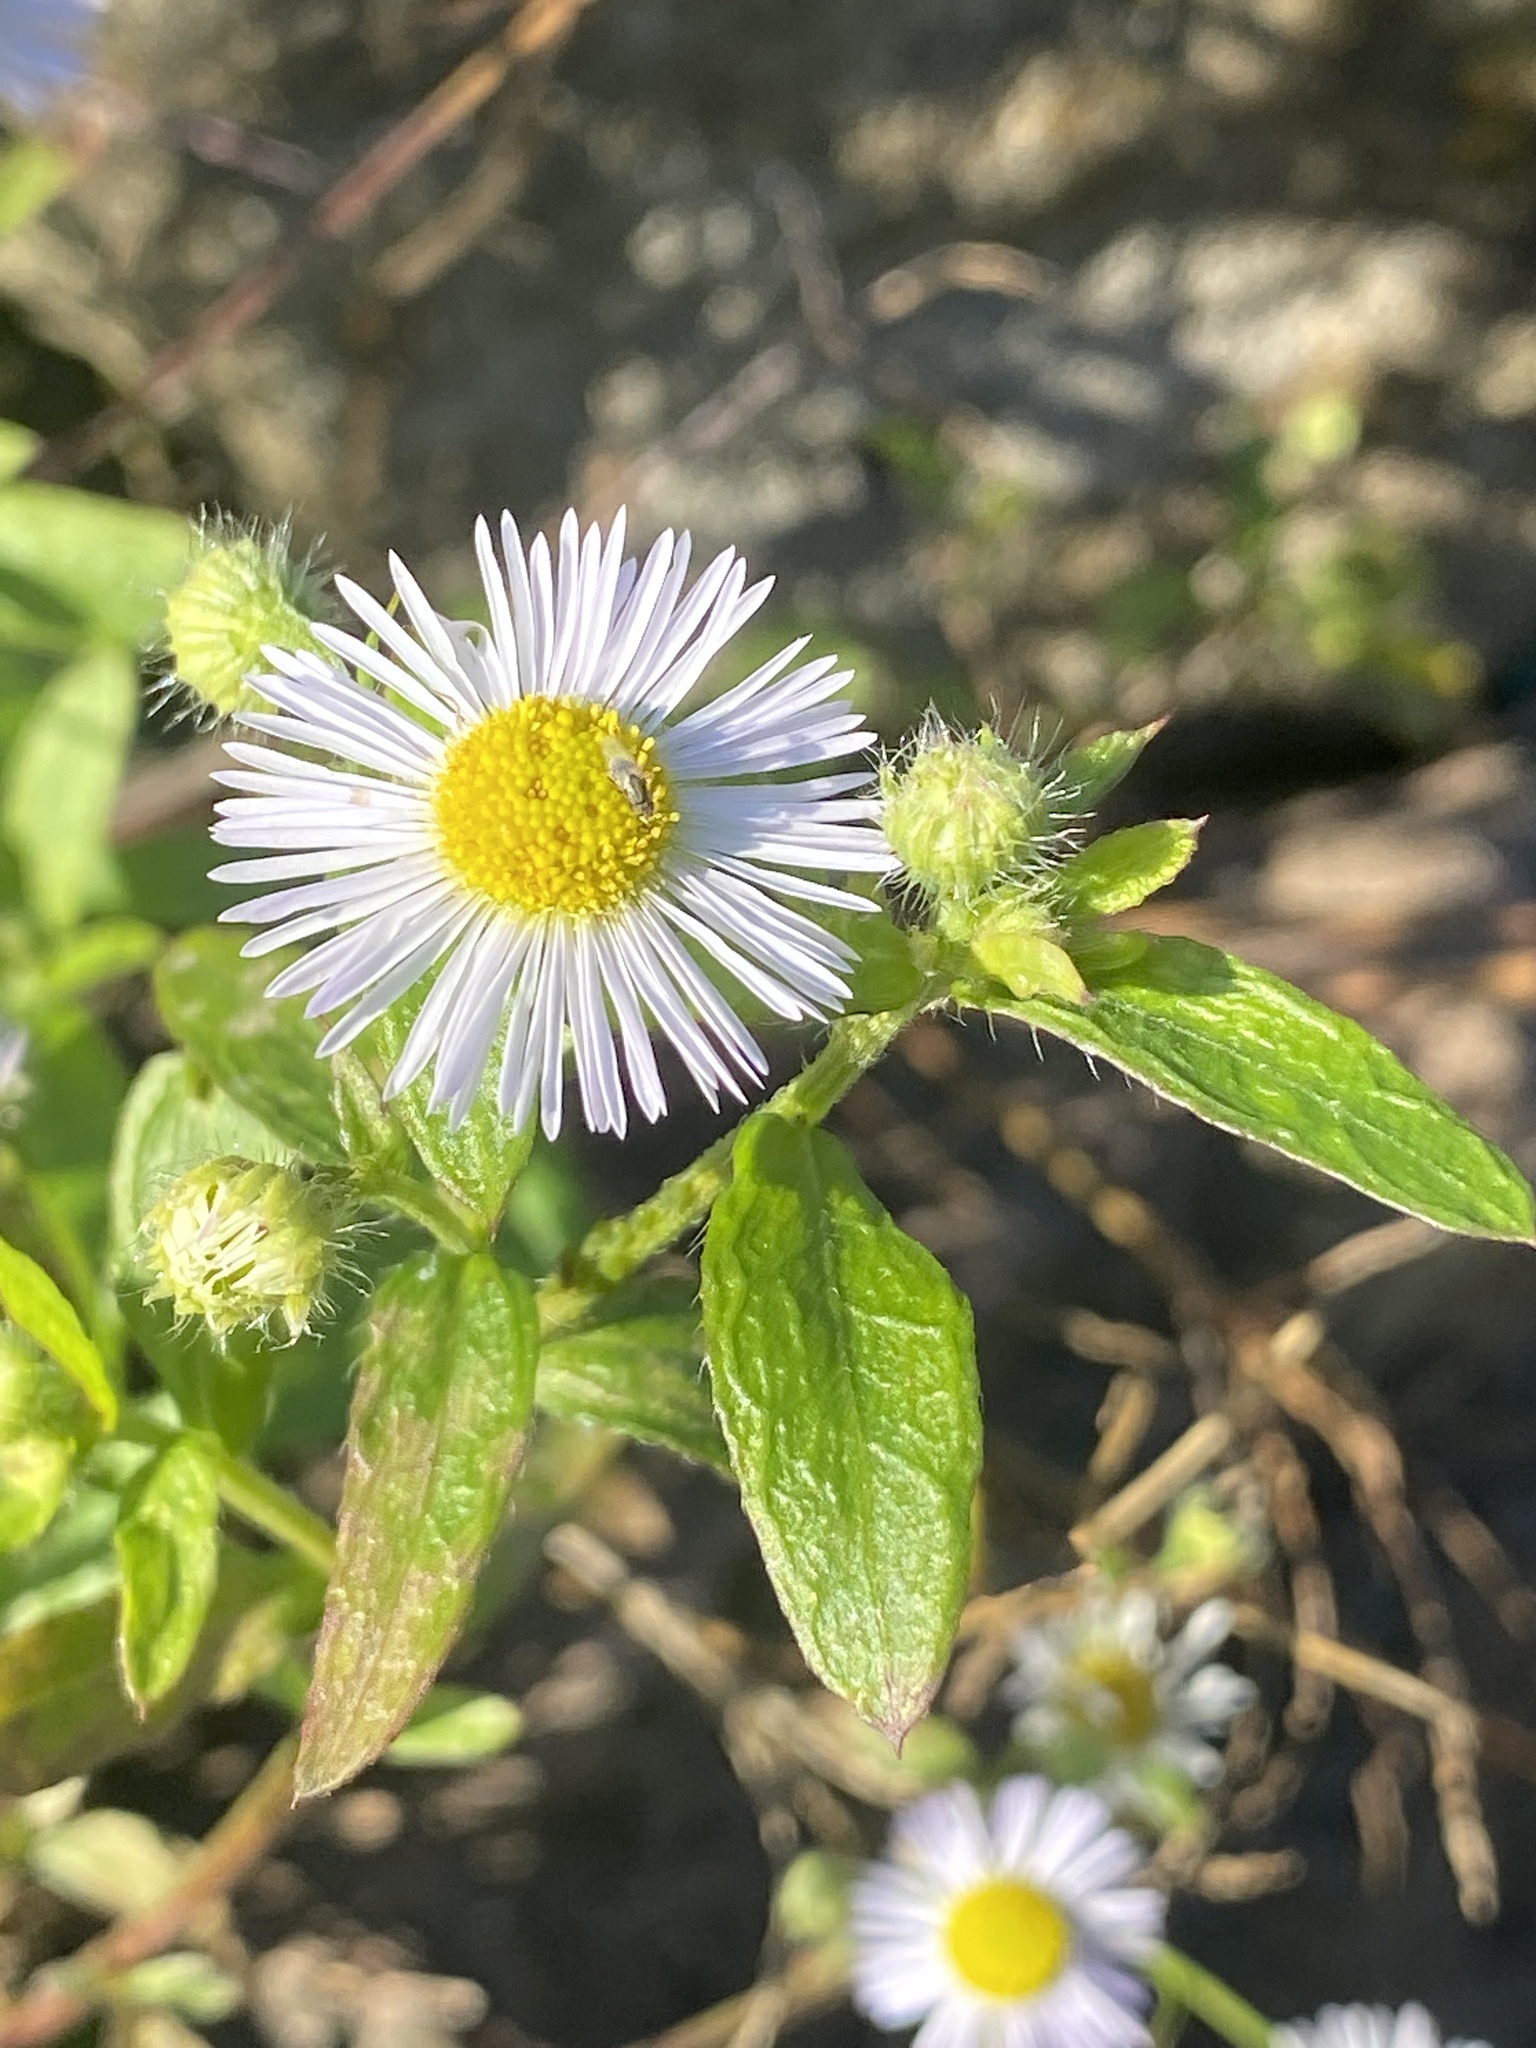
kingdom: Plantae
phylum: Tracheophyta
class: Magnoliopsida
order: Asterales
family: Asteraceae
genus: Erigeron
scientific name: Erigeron strigosus
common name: Common eastern fleabane
